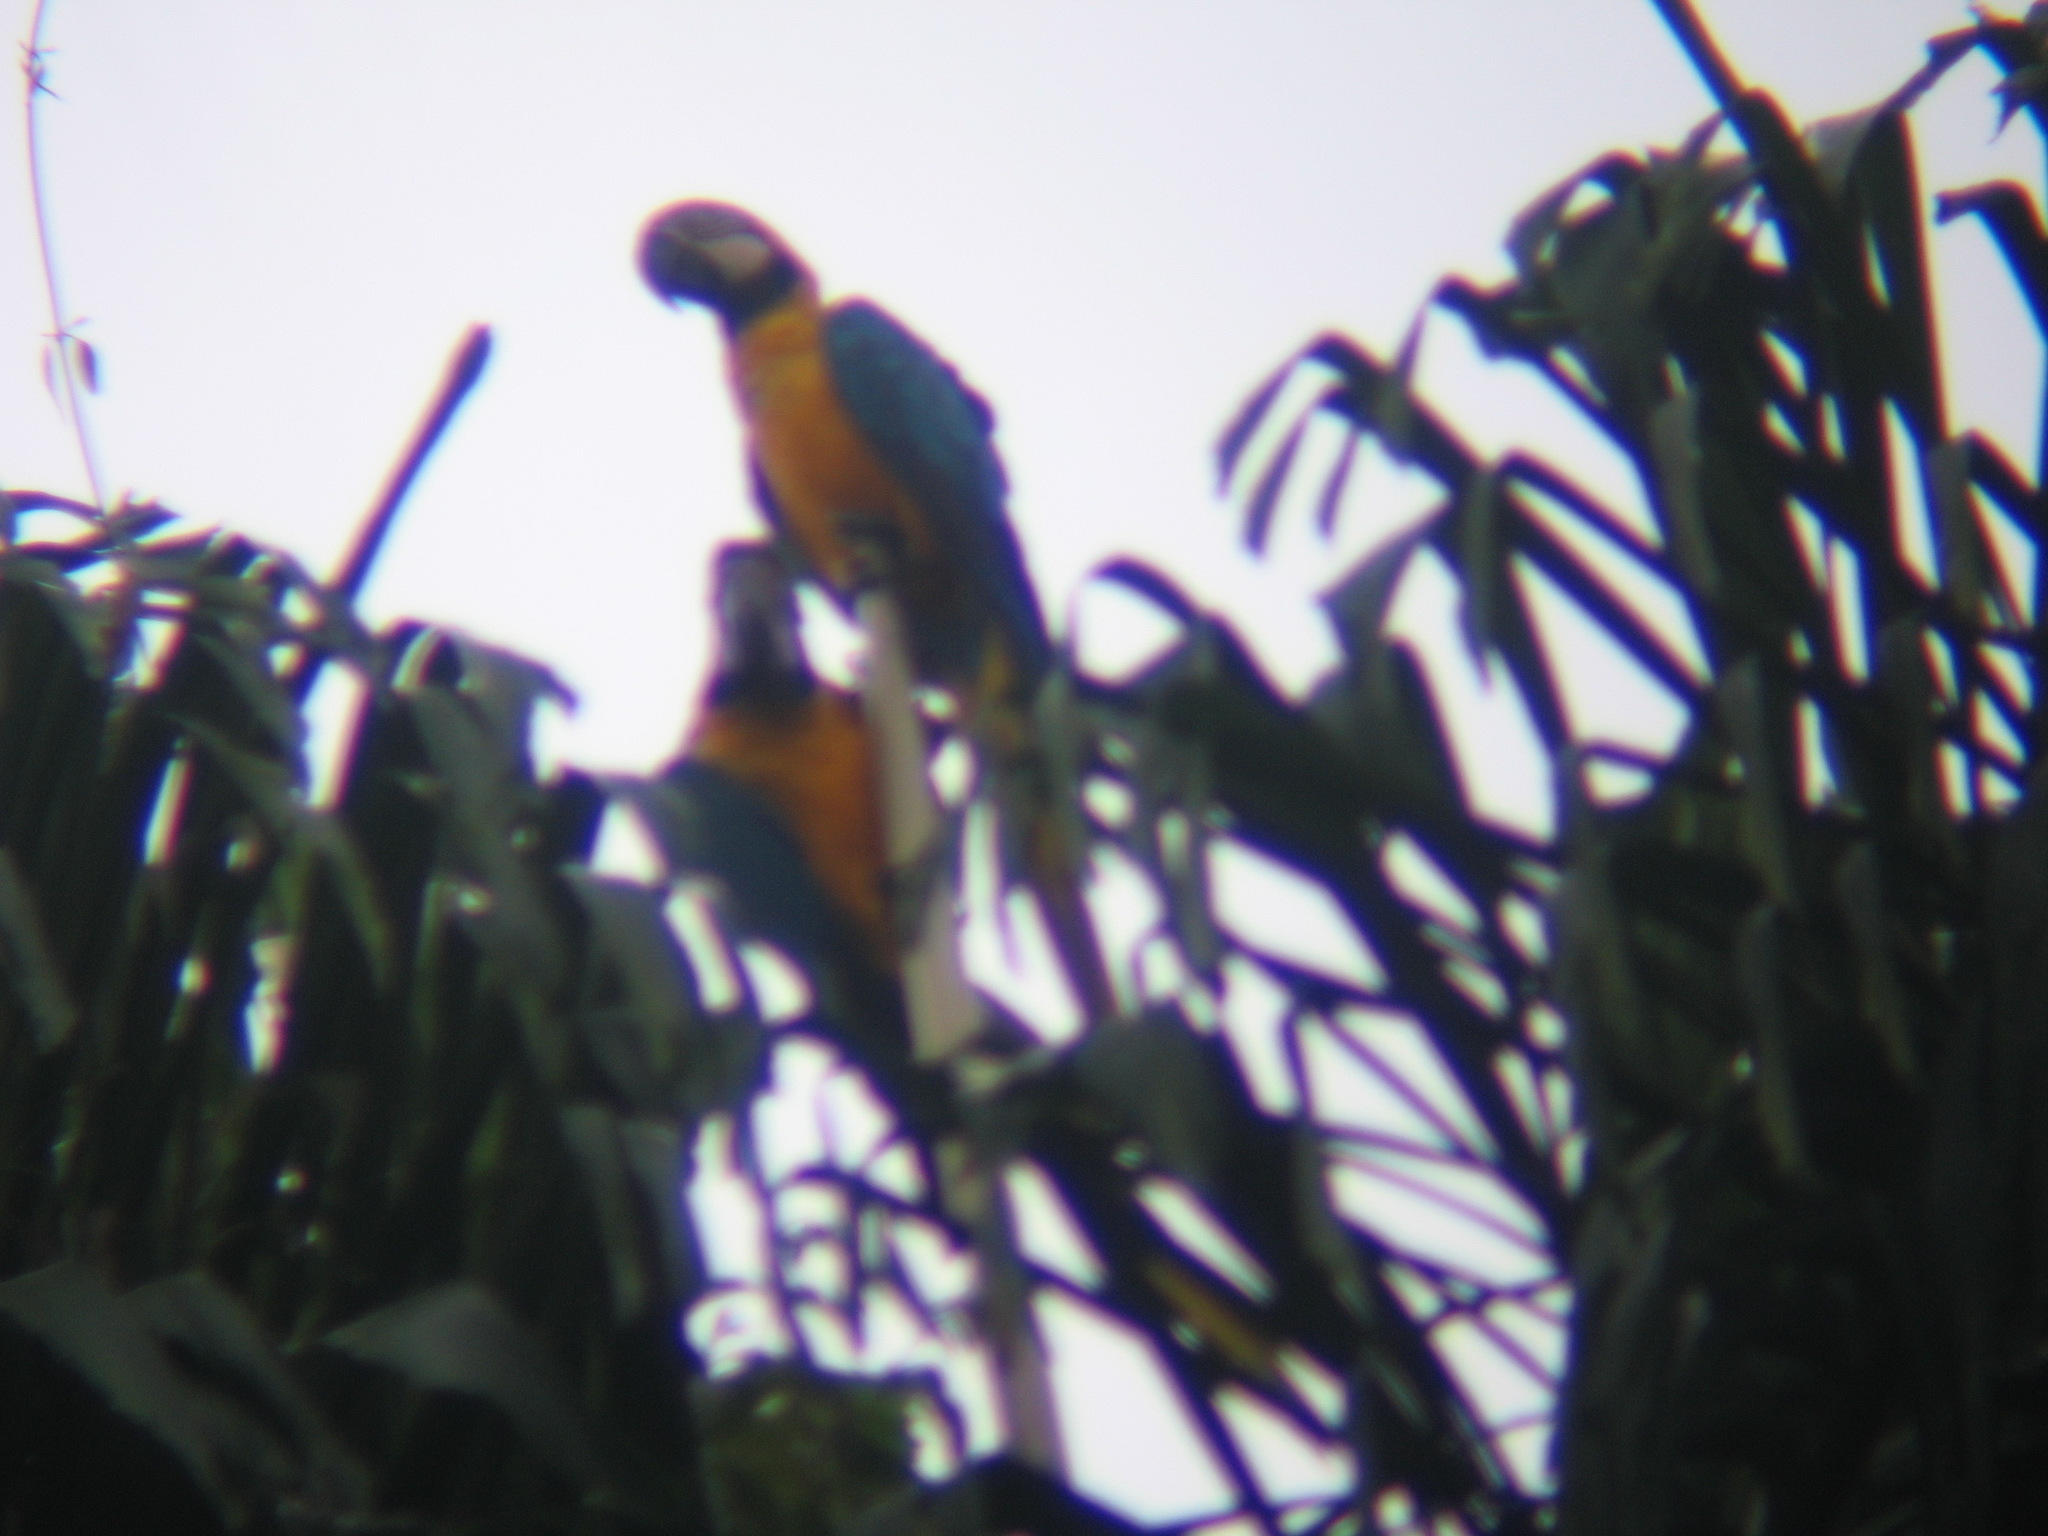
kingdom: Animalia
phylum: Chordata
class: Aves
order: Psittaciformes
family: Psittacidae
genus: Ara
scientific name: Ara ararauna
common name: Blue-and-yellow macaw
